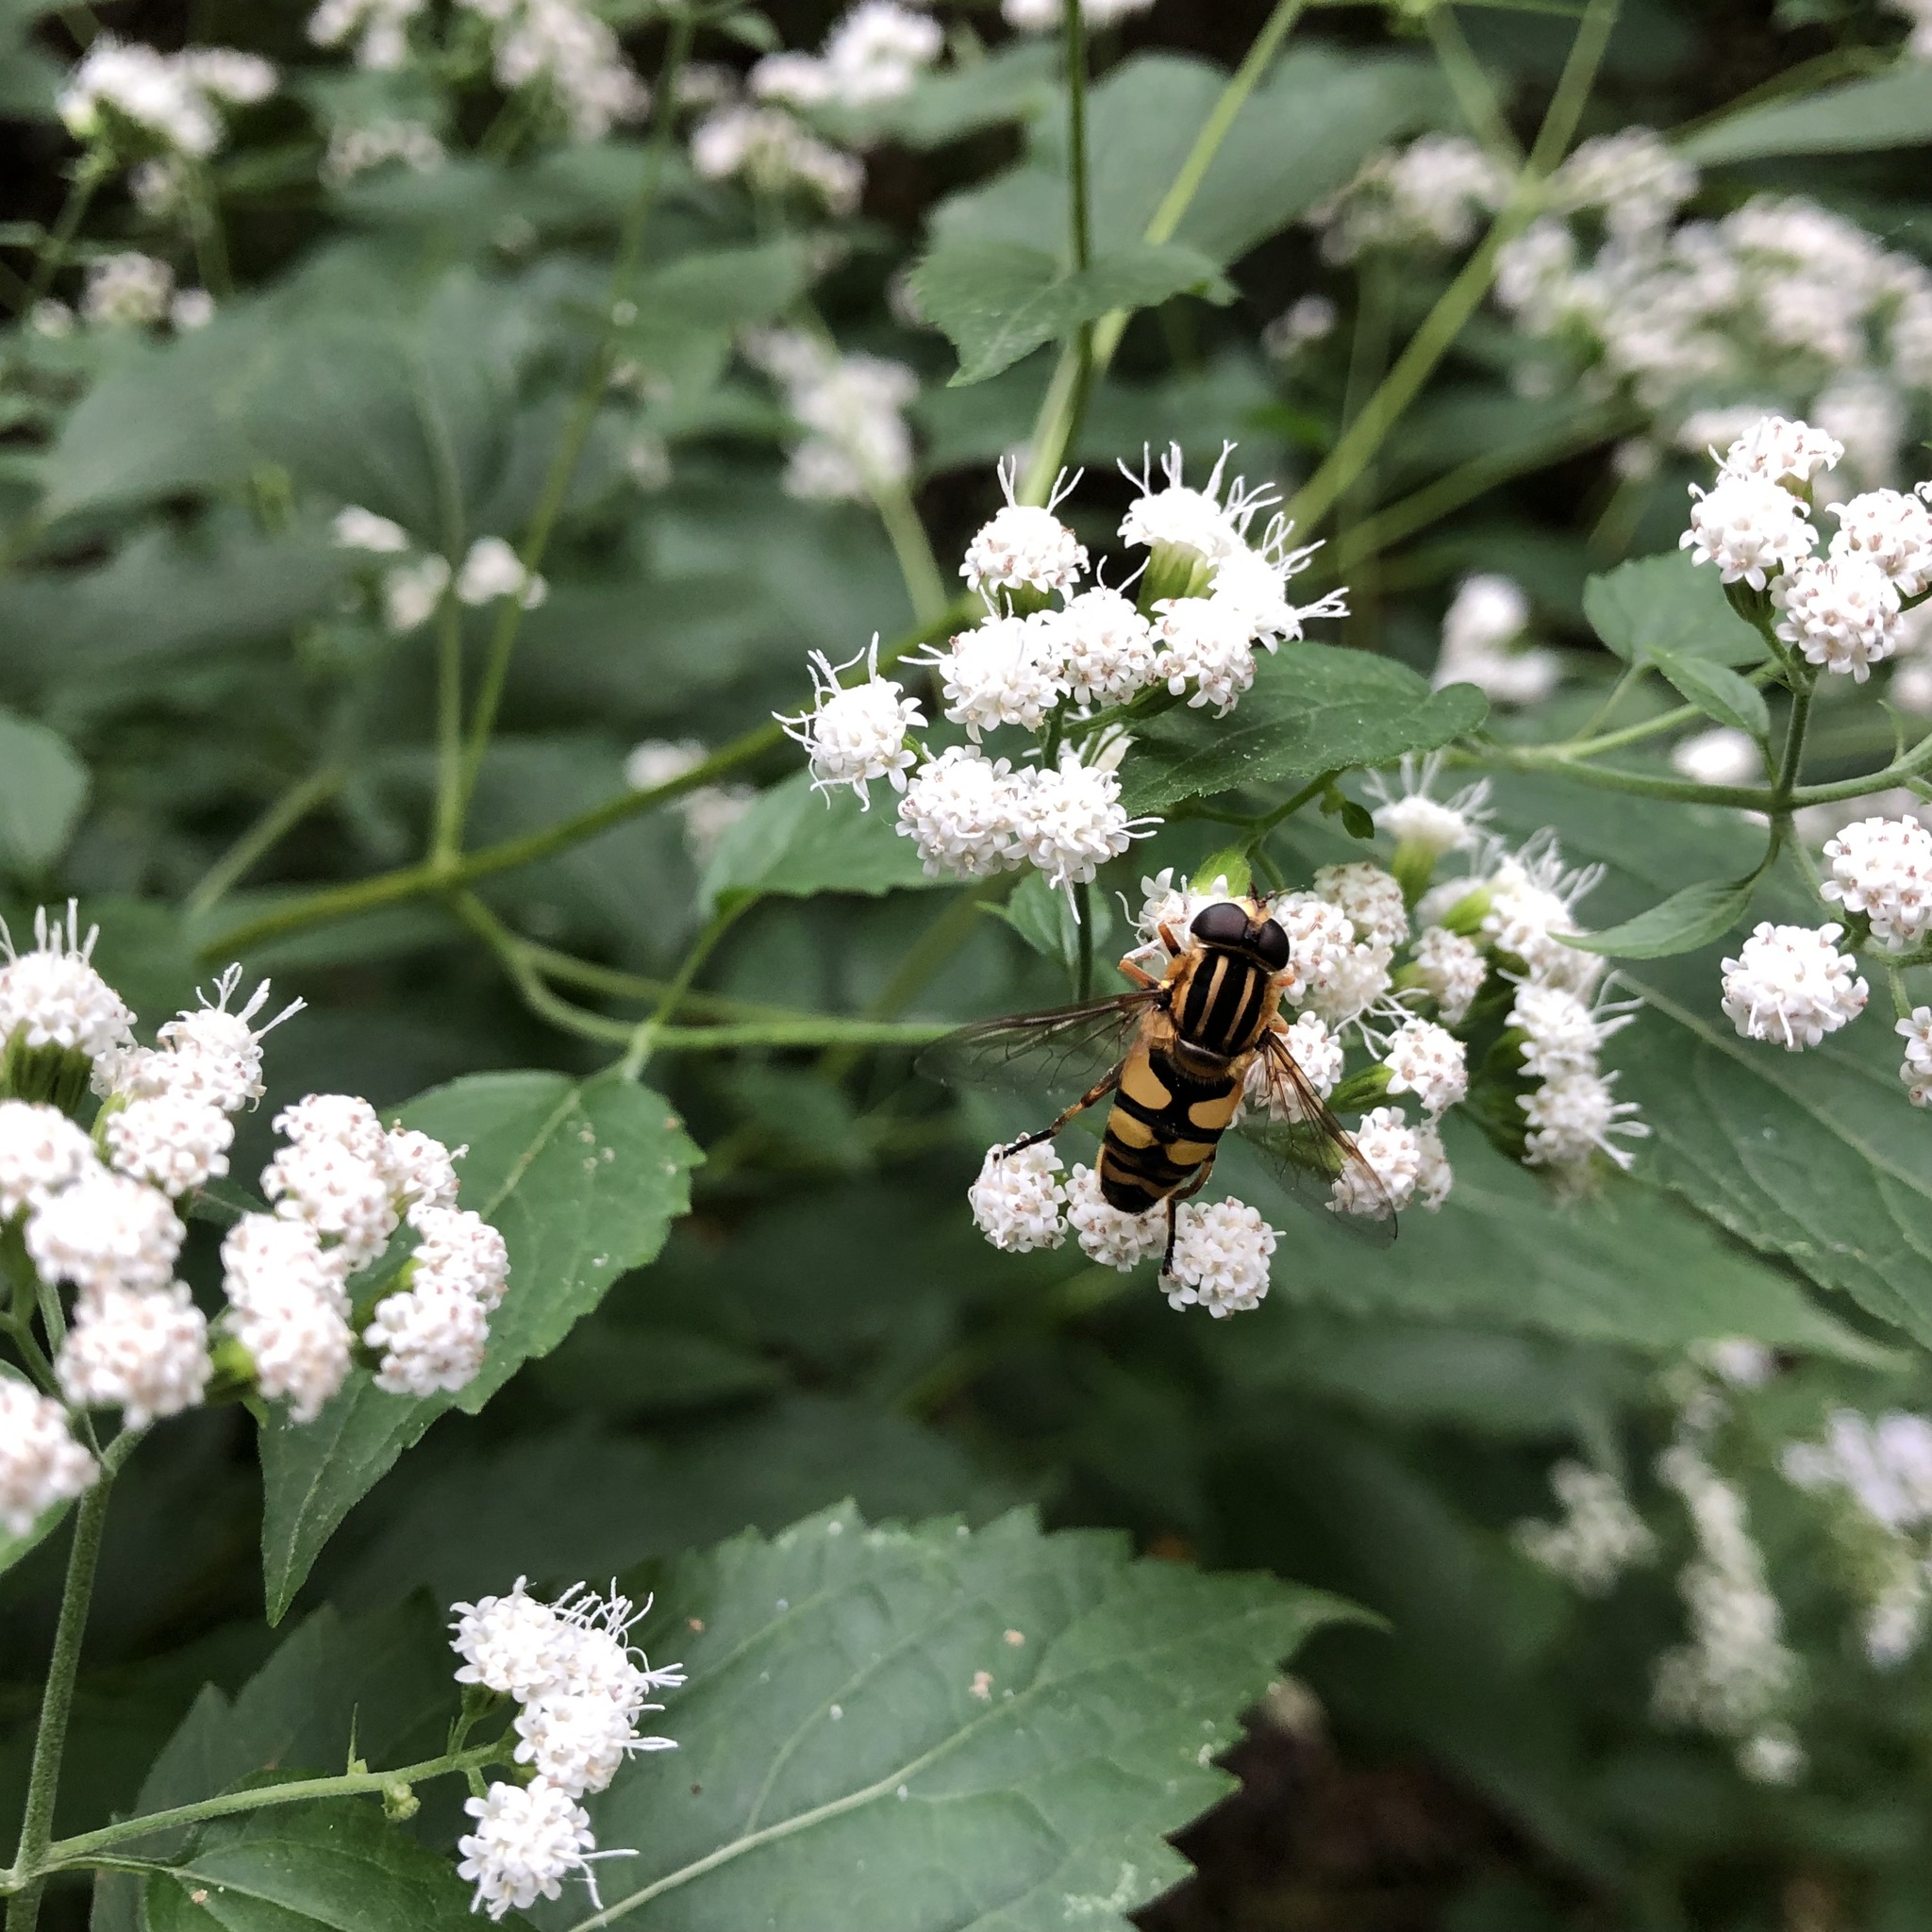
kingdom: Animalia
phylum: Arthropoda
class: Insecta
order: Diptera
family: Syrphidae
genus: Helophilus
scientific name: Helophilus fasciatus
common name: Narrow-headed marsh fly
